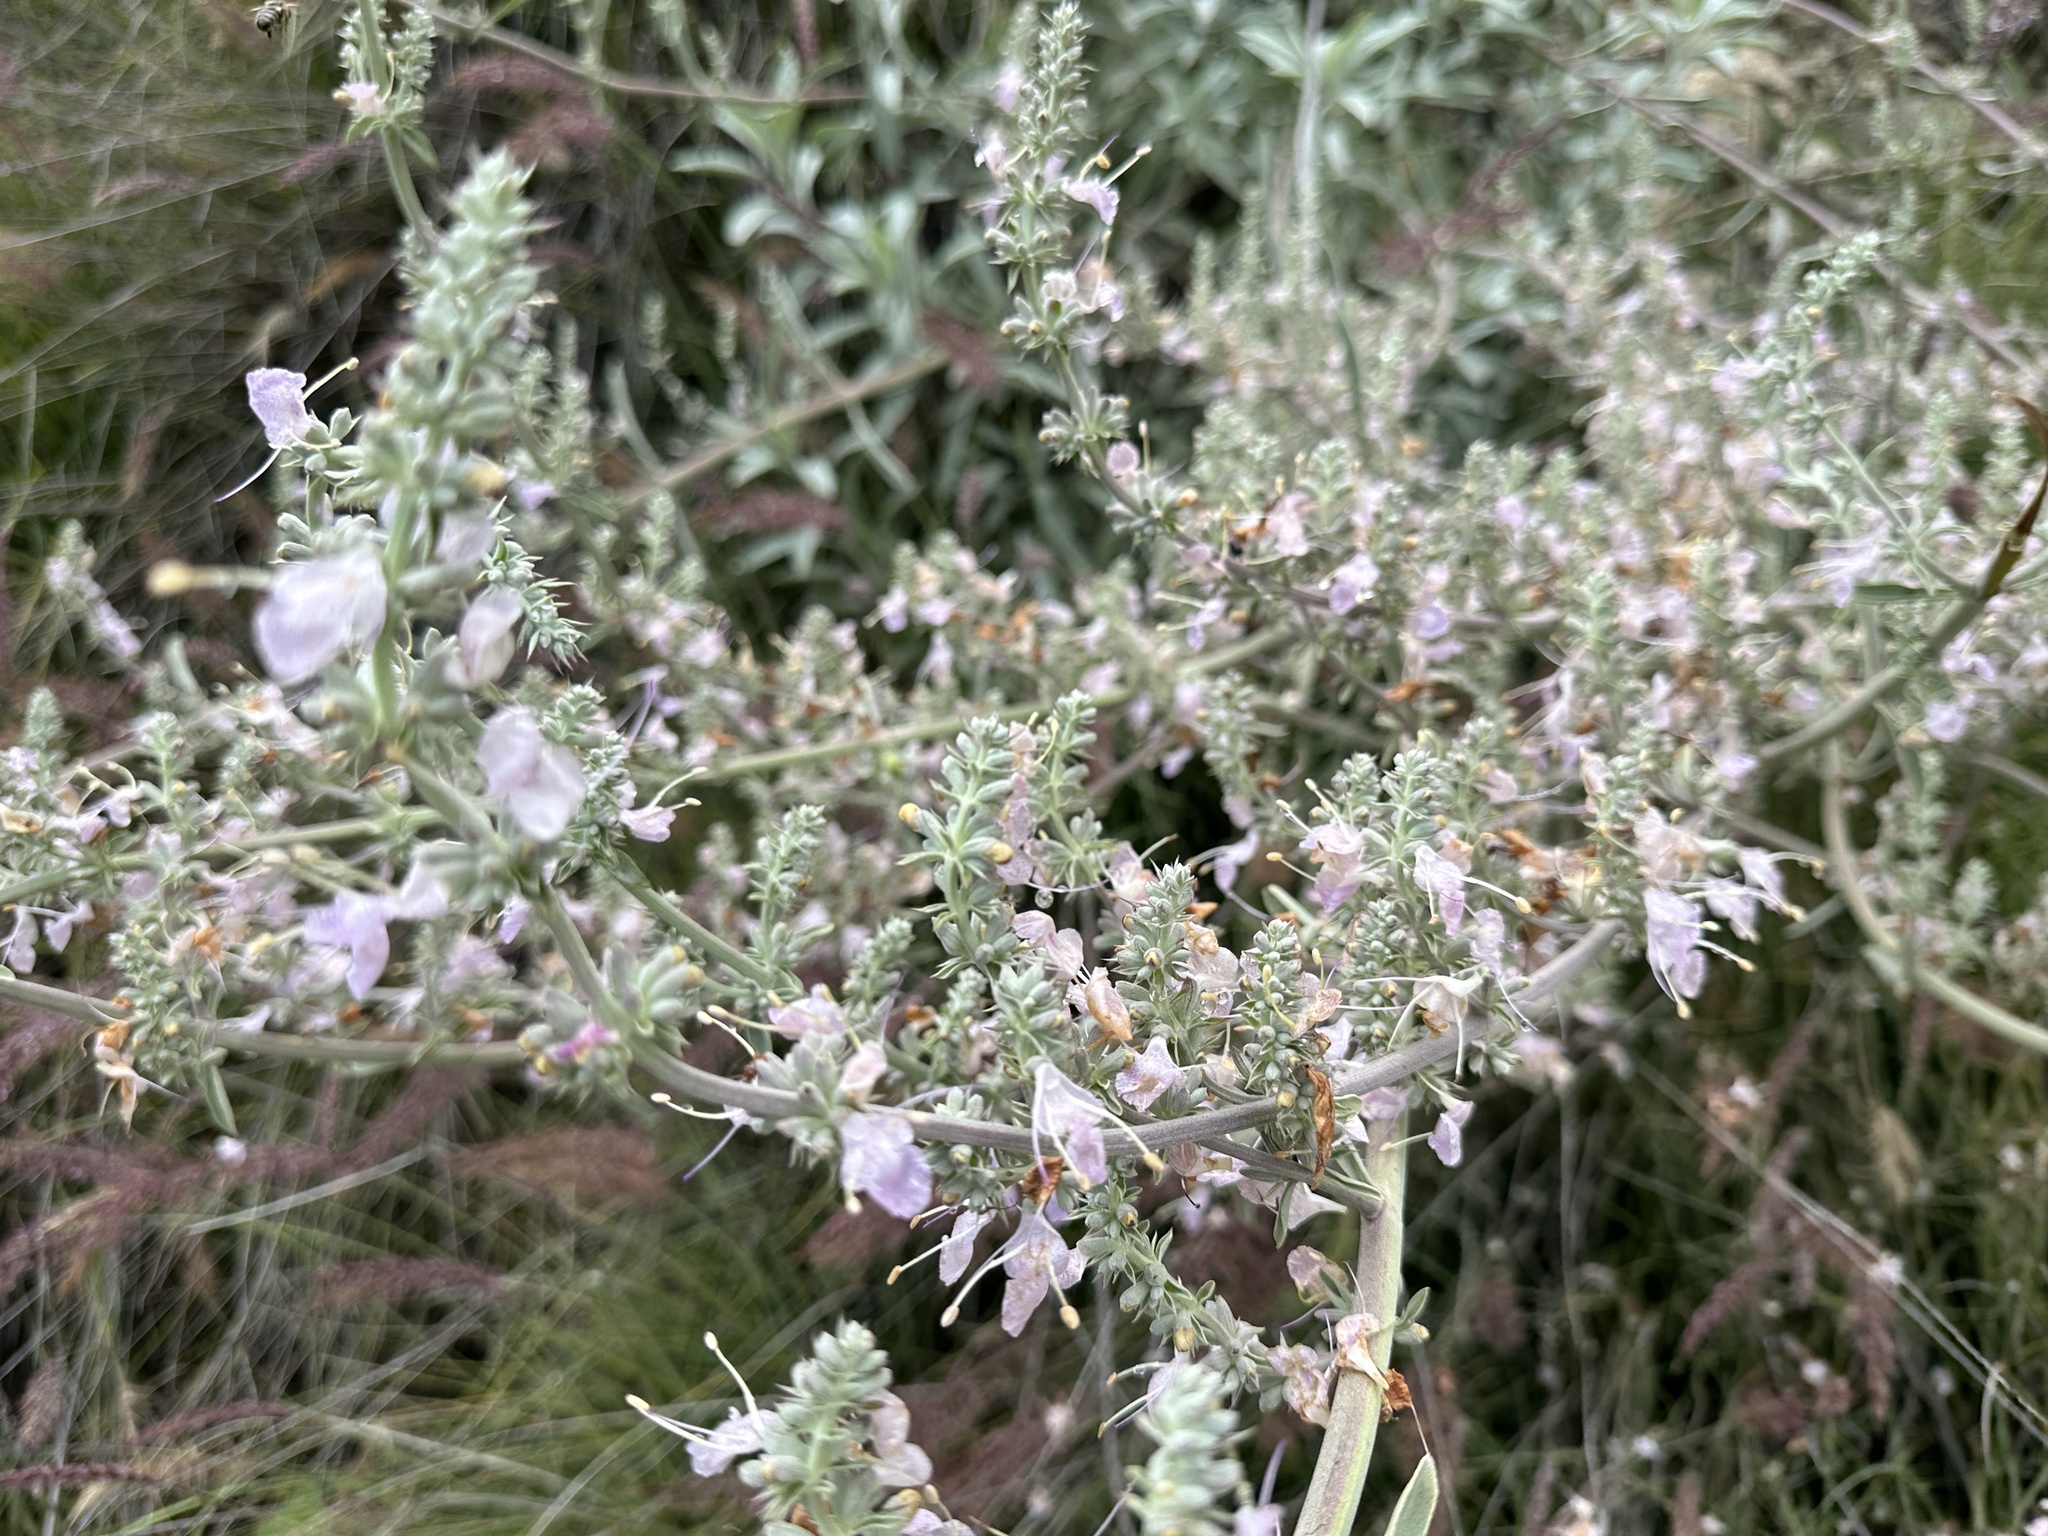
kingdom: Plantae
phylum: Tracheophyta
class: Magnoliopsida
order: Lamiales
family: Lamiaceae
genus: Salvia
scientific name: Salvia apiana
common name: White sage
